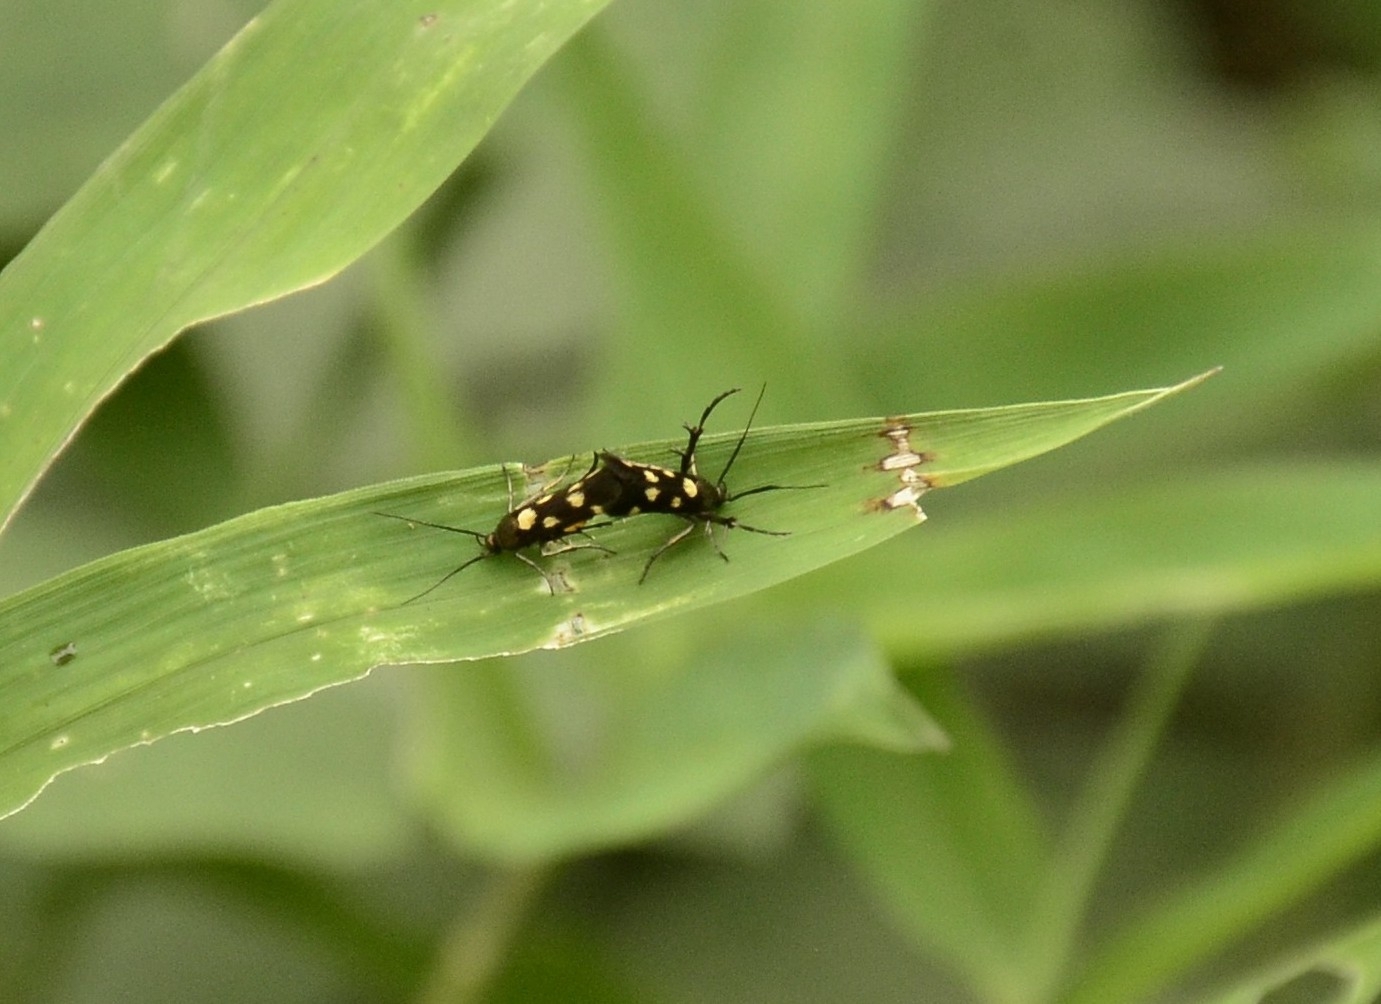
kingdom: Animalia
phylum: Arthropoda
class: Insecta
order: Lepidoptera
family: Scythrididae
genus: Eretmocera
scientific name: Eretmocera impactella
